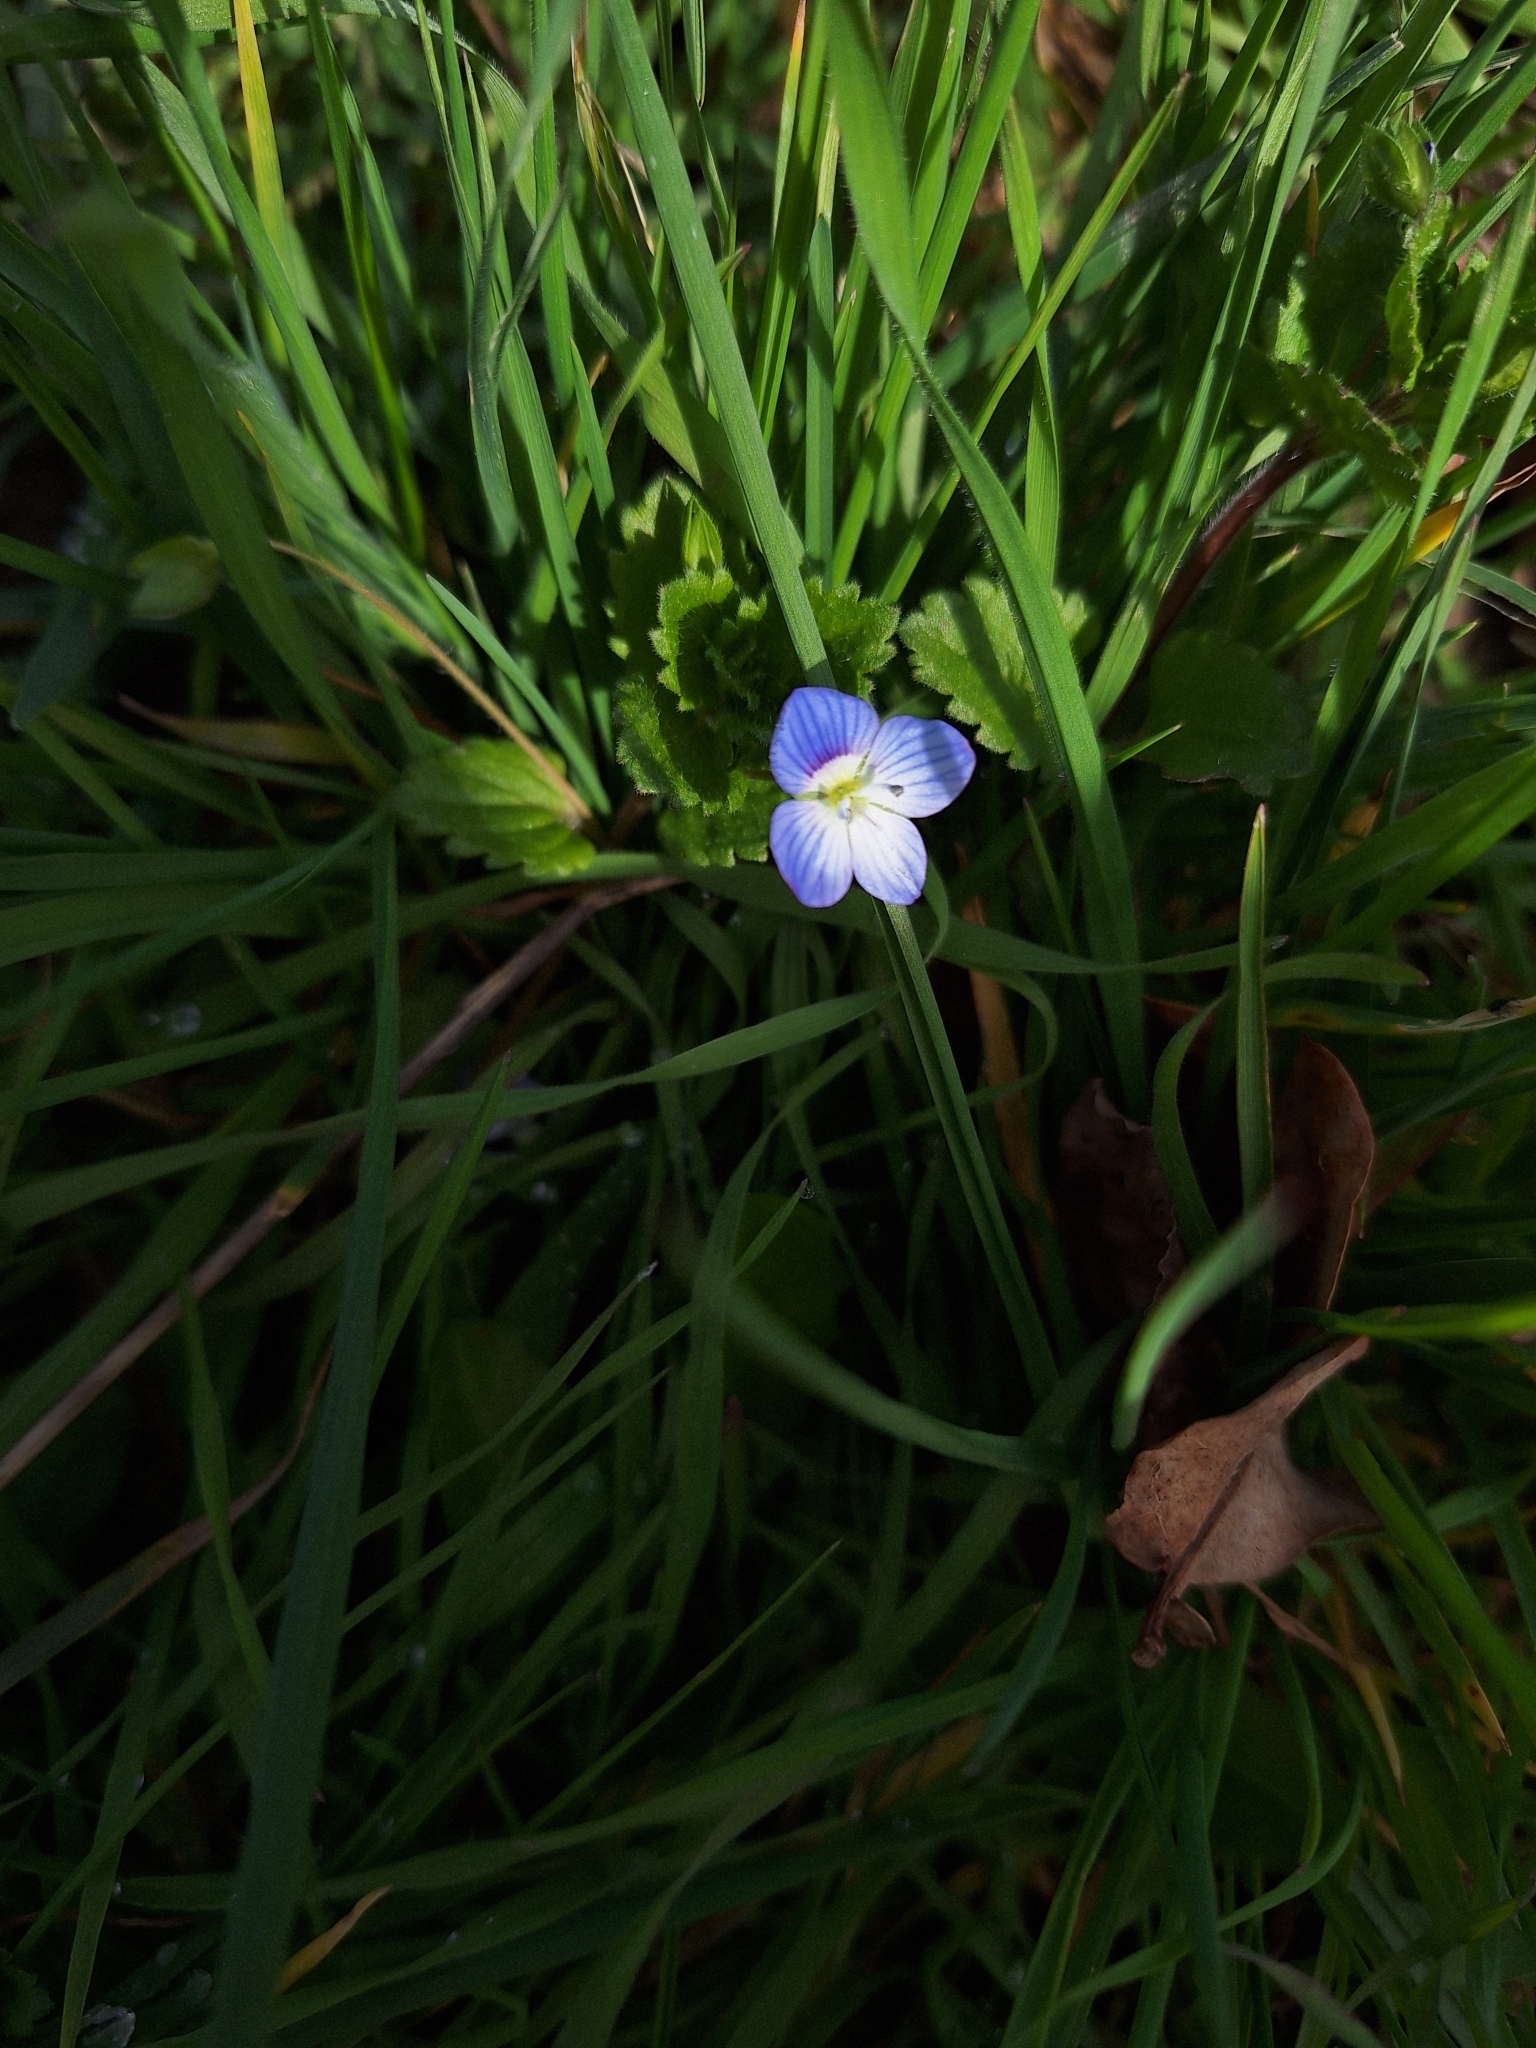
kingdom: Plantae
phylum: Tracheophyta
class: Magnoliopsida
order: Lamiales
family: Plantaginaceae
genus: Veronica
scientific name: Veronica persica
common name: Common field-speedwell
